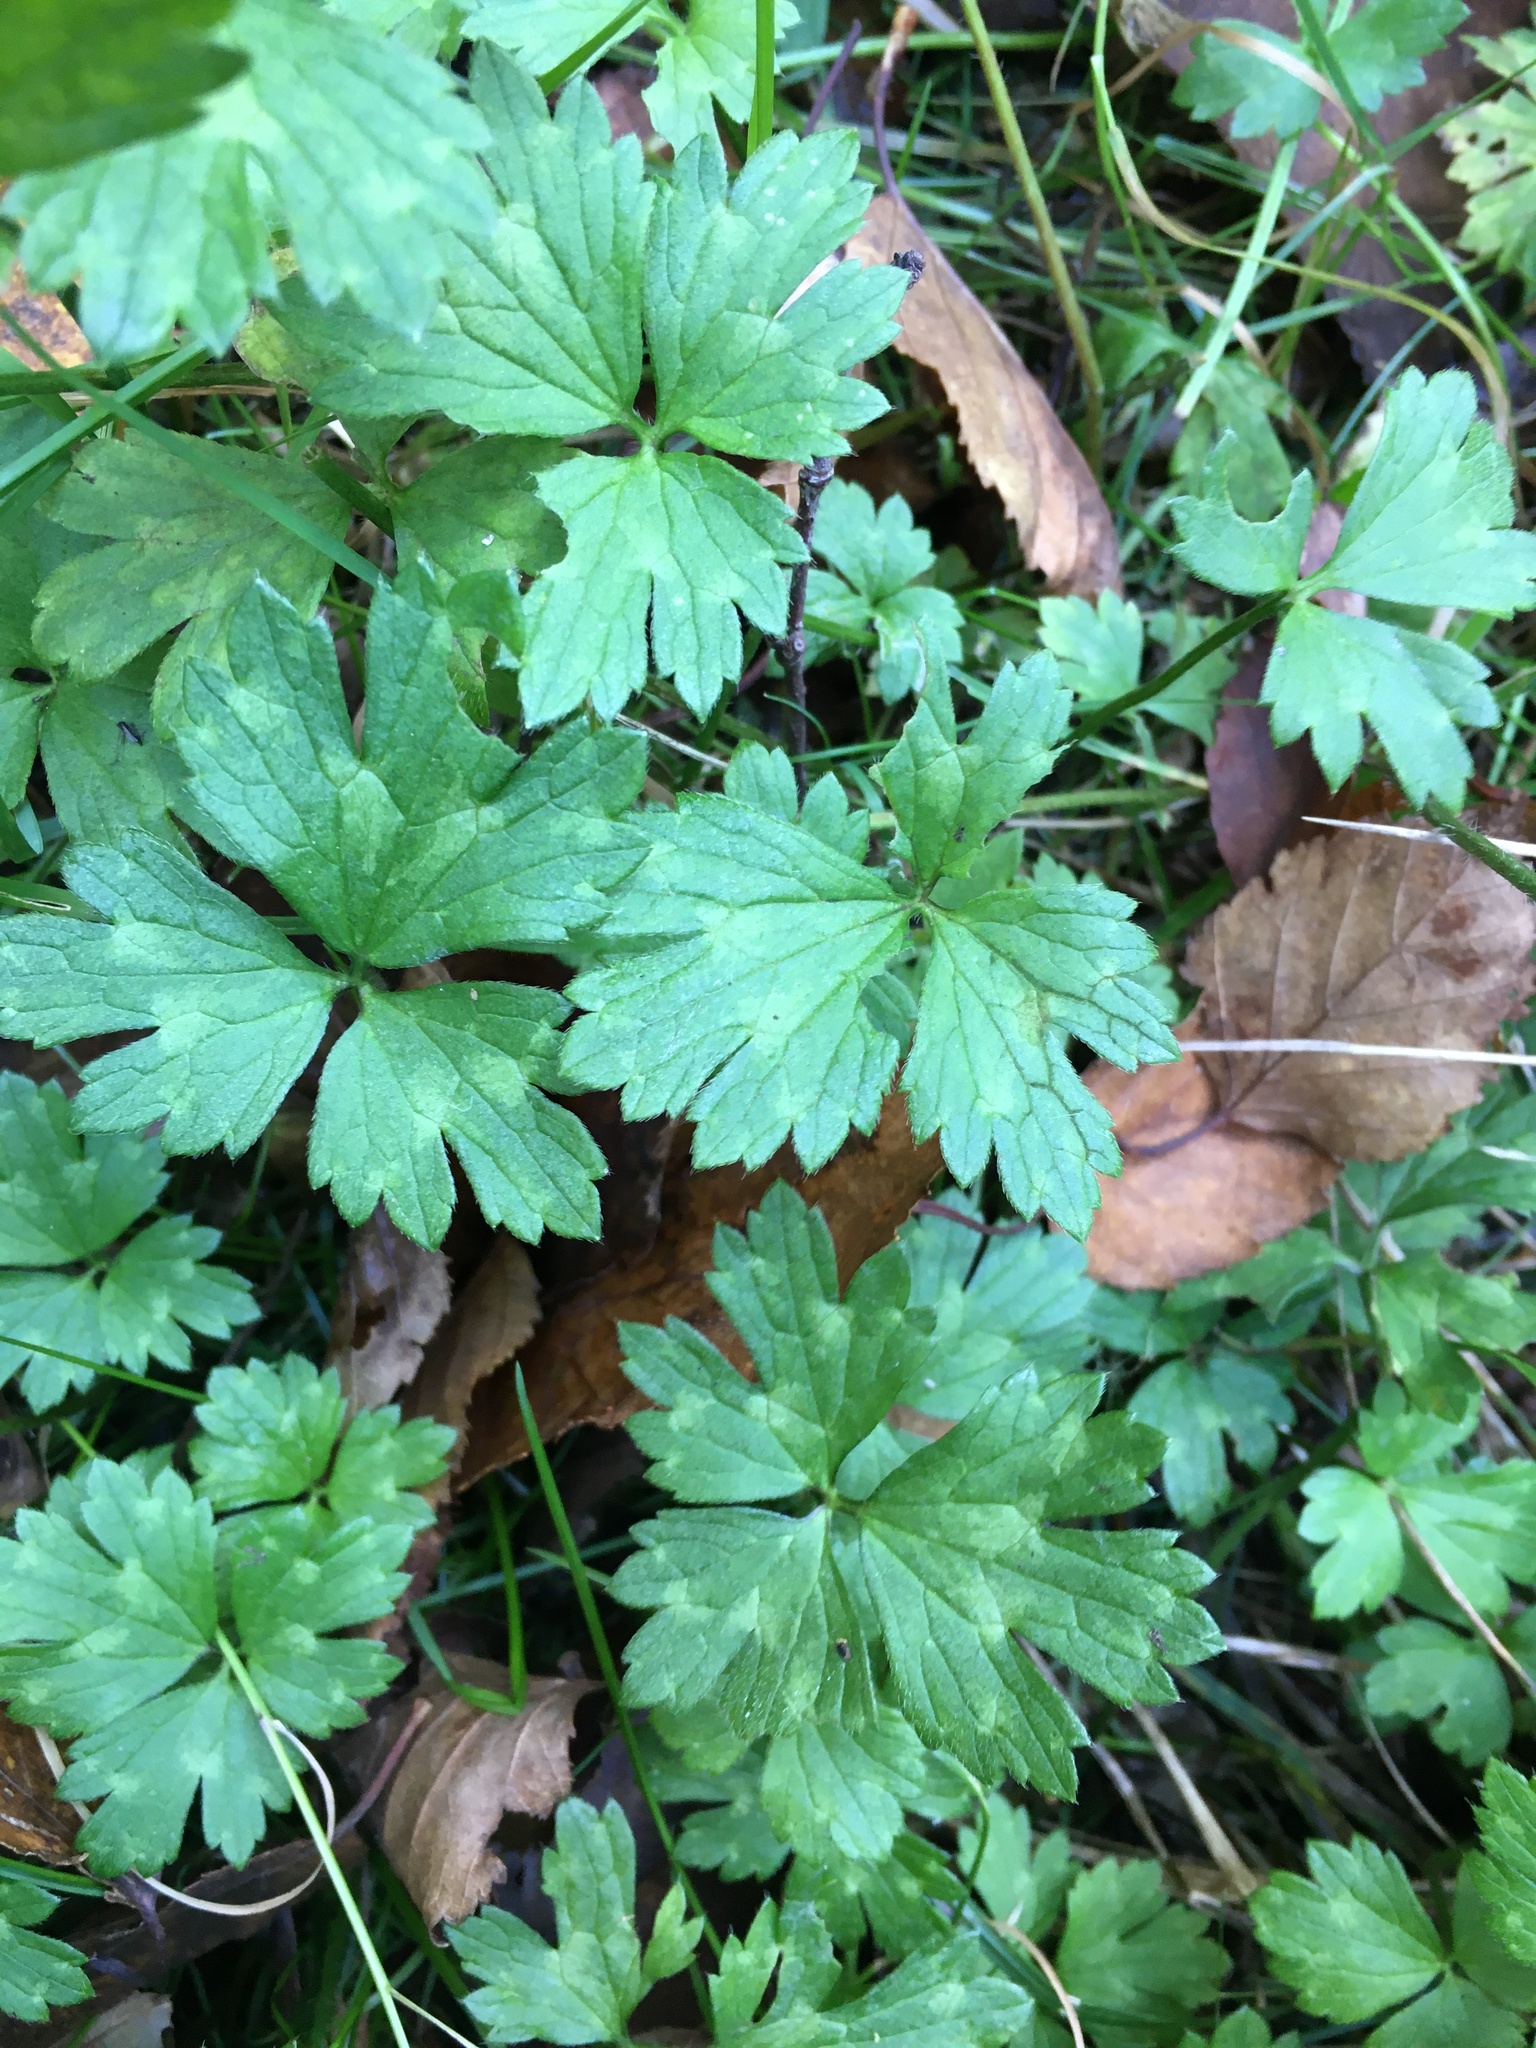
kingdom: Plantae
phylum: Tracheophyta
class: Magnoliopsida
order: Ranunculales
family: Ranunculaceae
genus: Ranunculus
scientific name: Ranunculus repens
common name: Creeping buttercup
